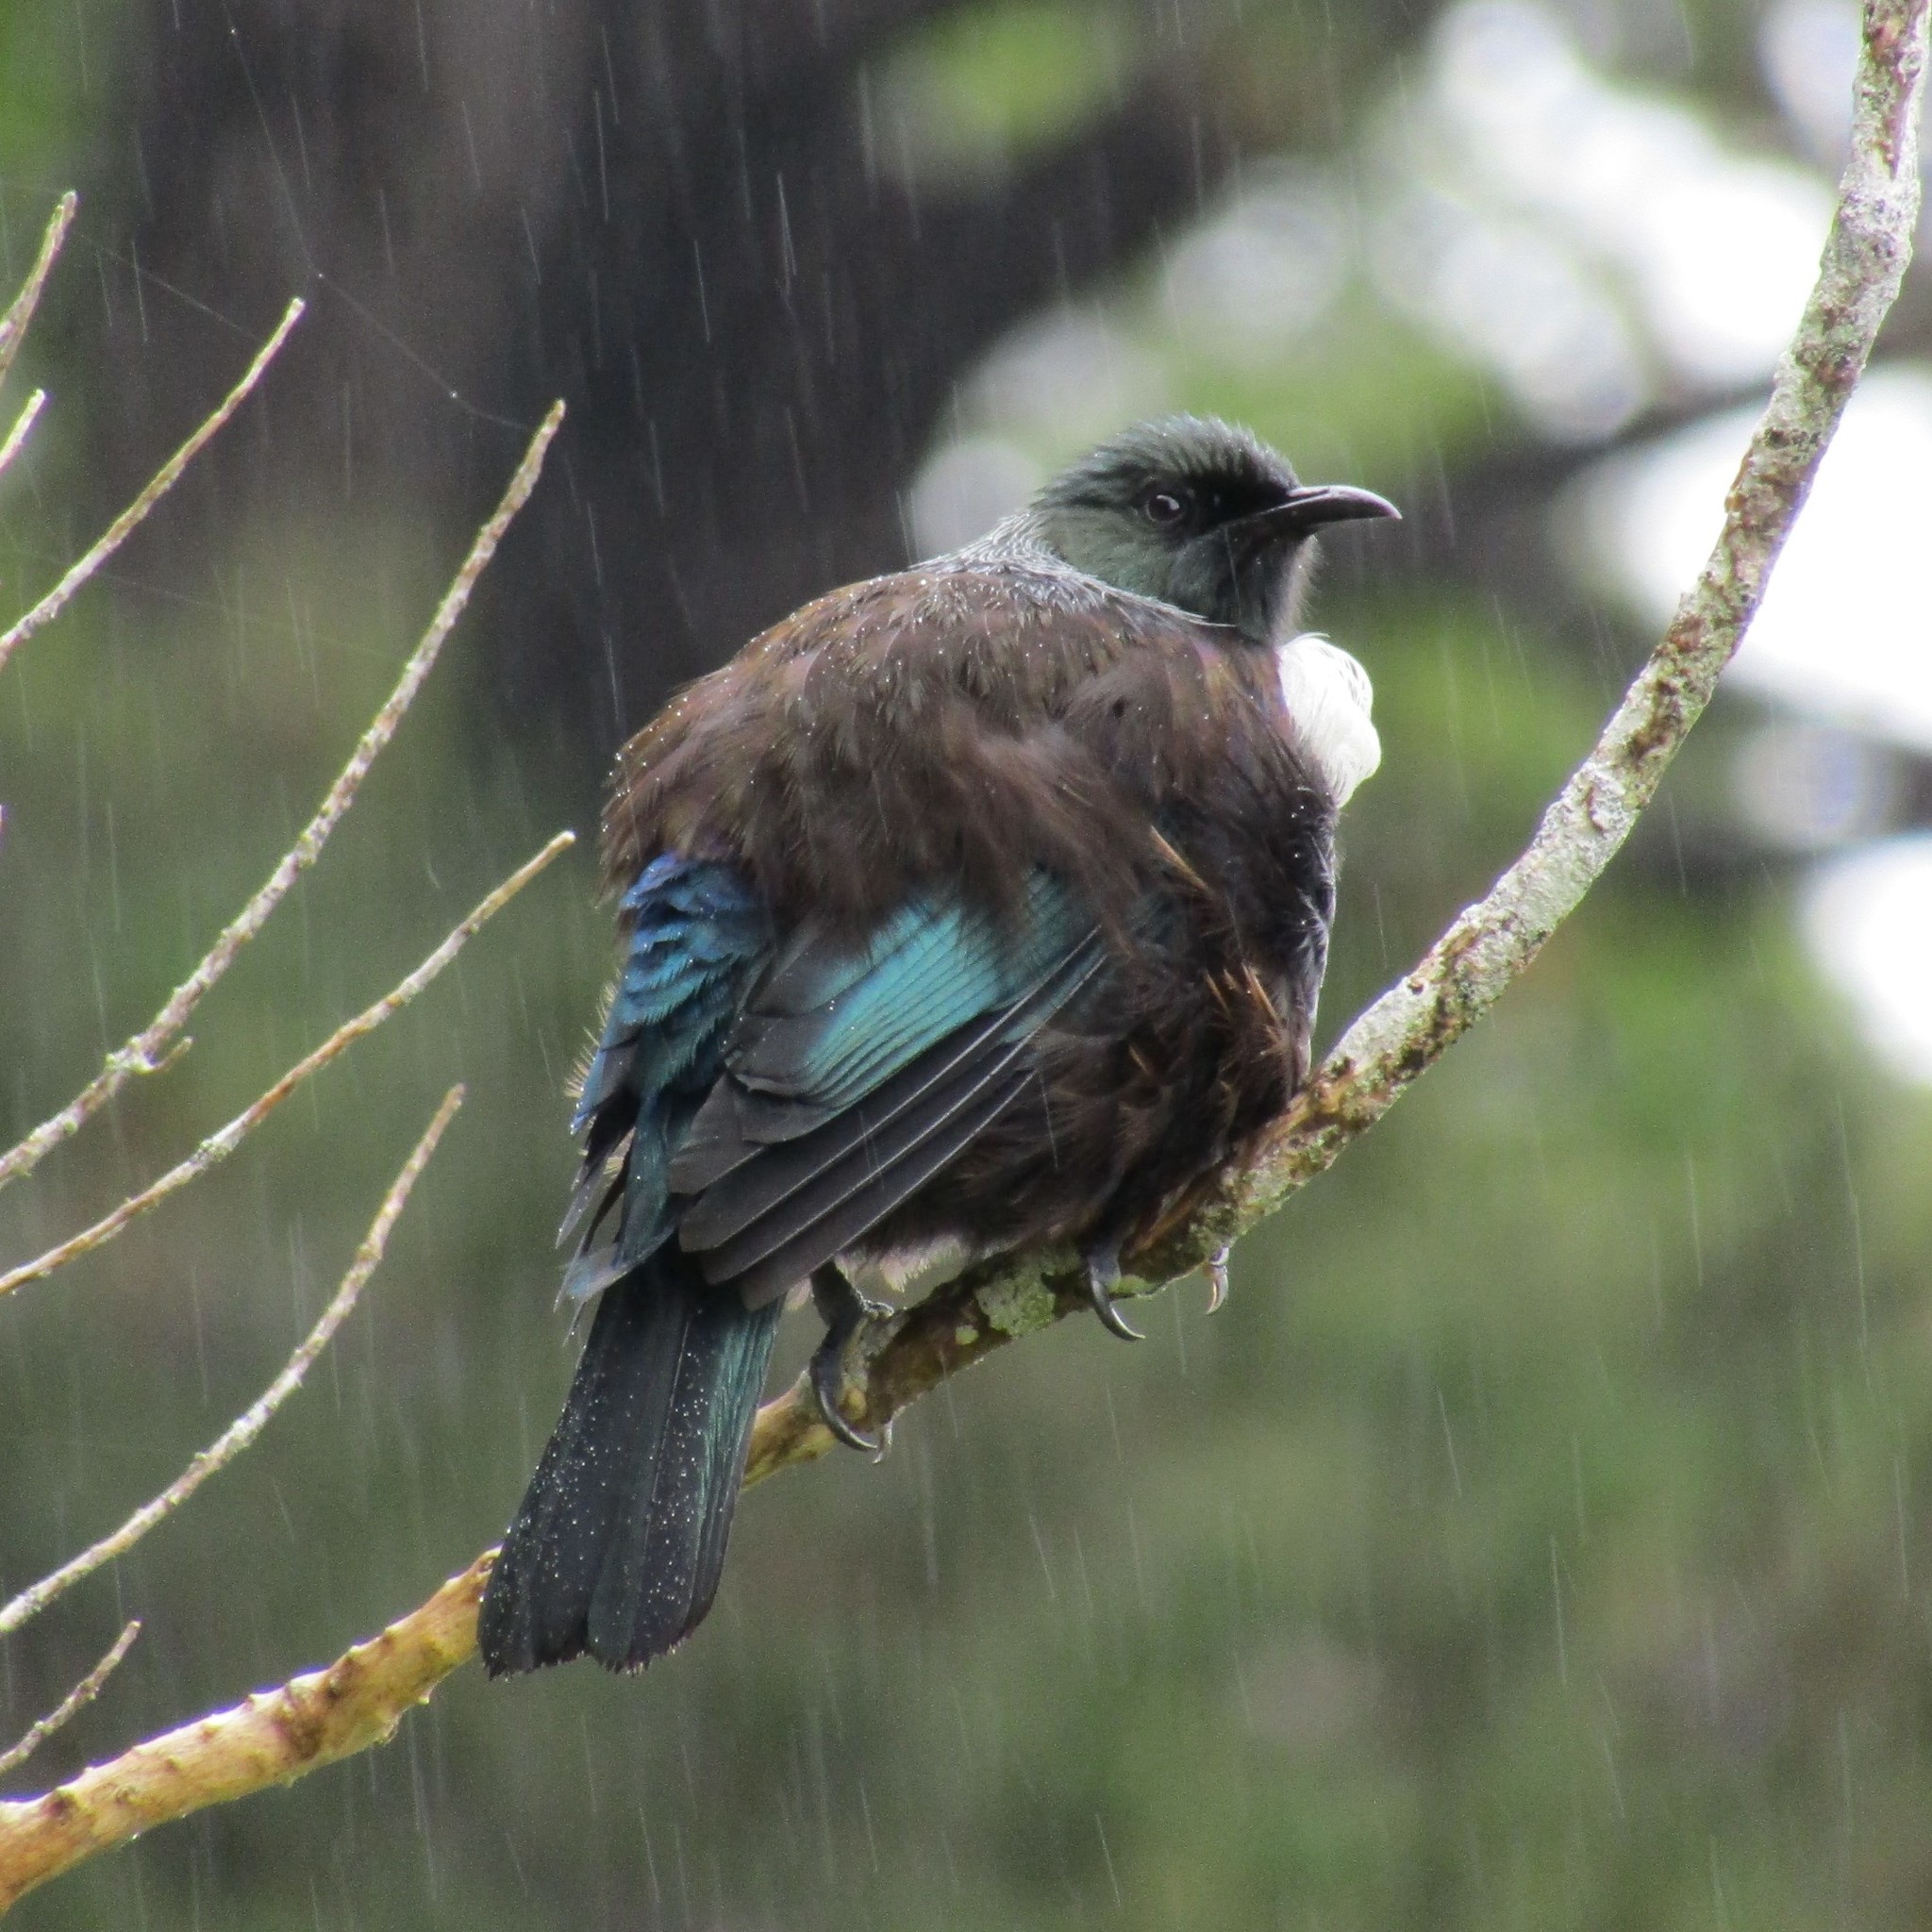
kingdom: Animalia
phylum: Chordata
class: Aves
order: Passeriformes
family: Meliphagidae
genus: Prosthemadera
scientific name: Prosthemadera novaeseelandiae
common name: Tui
